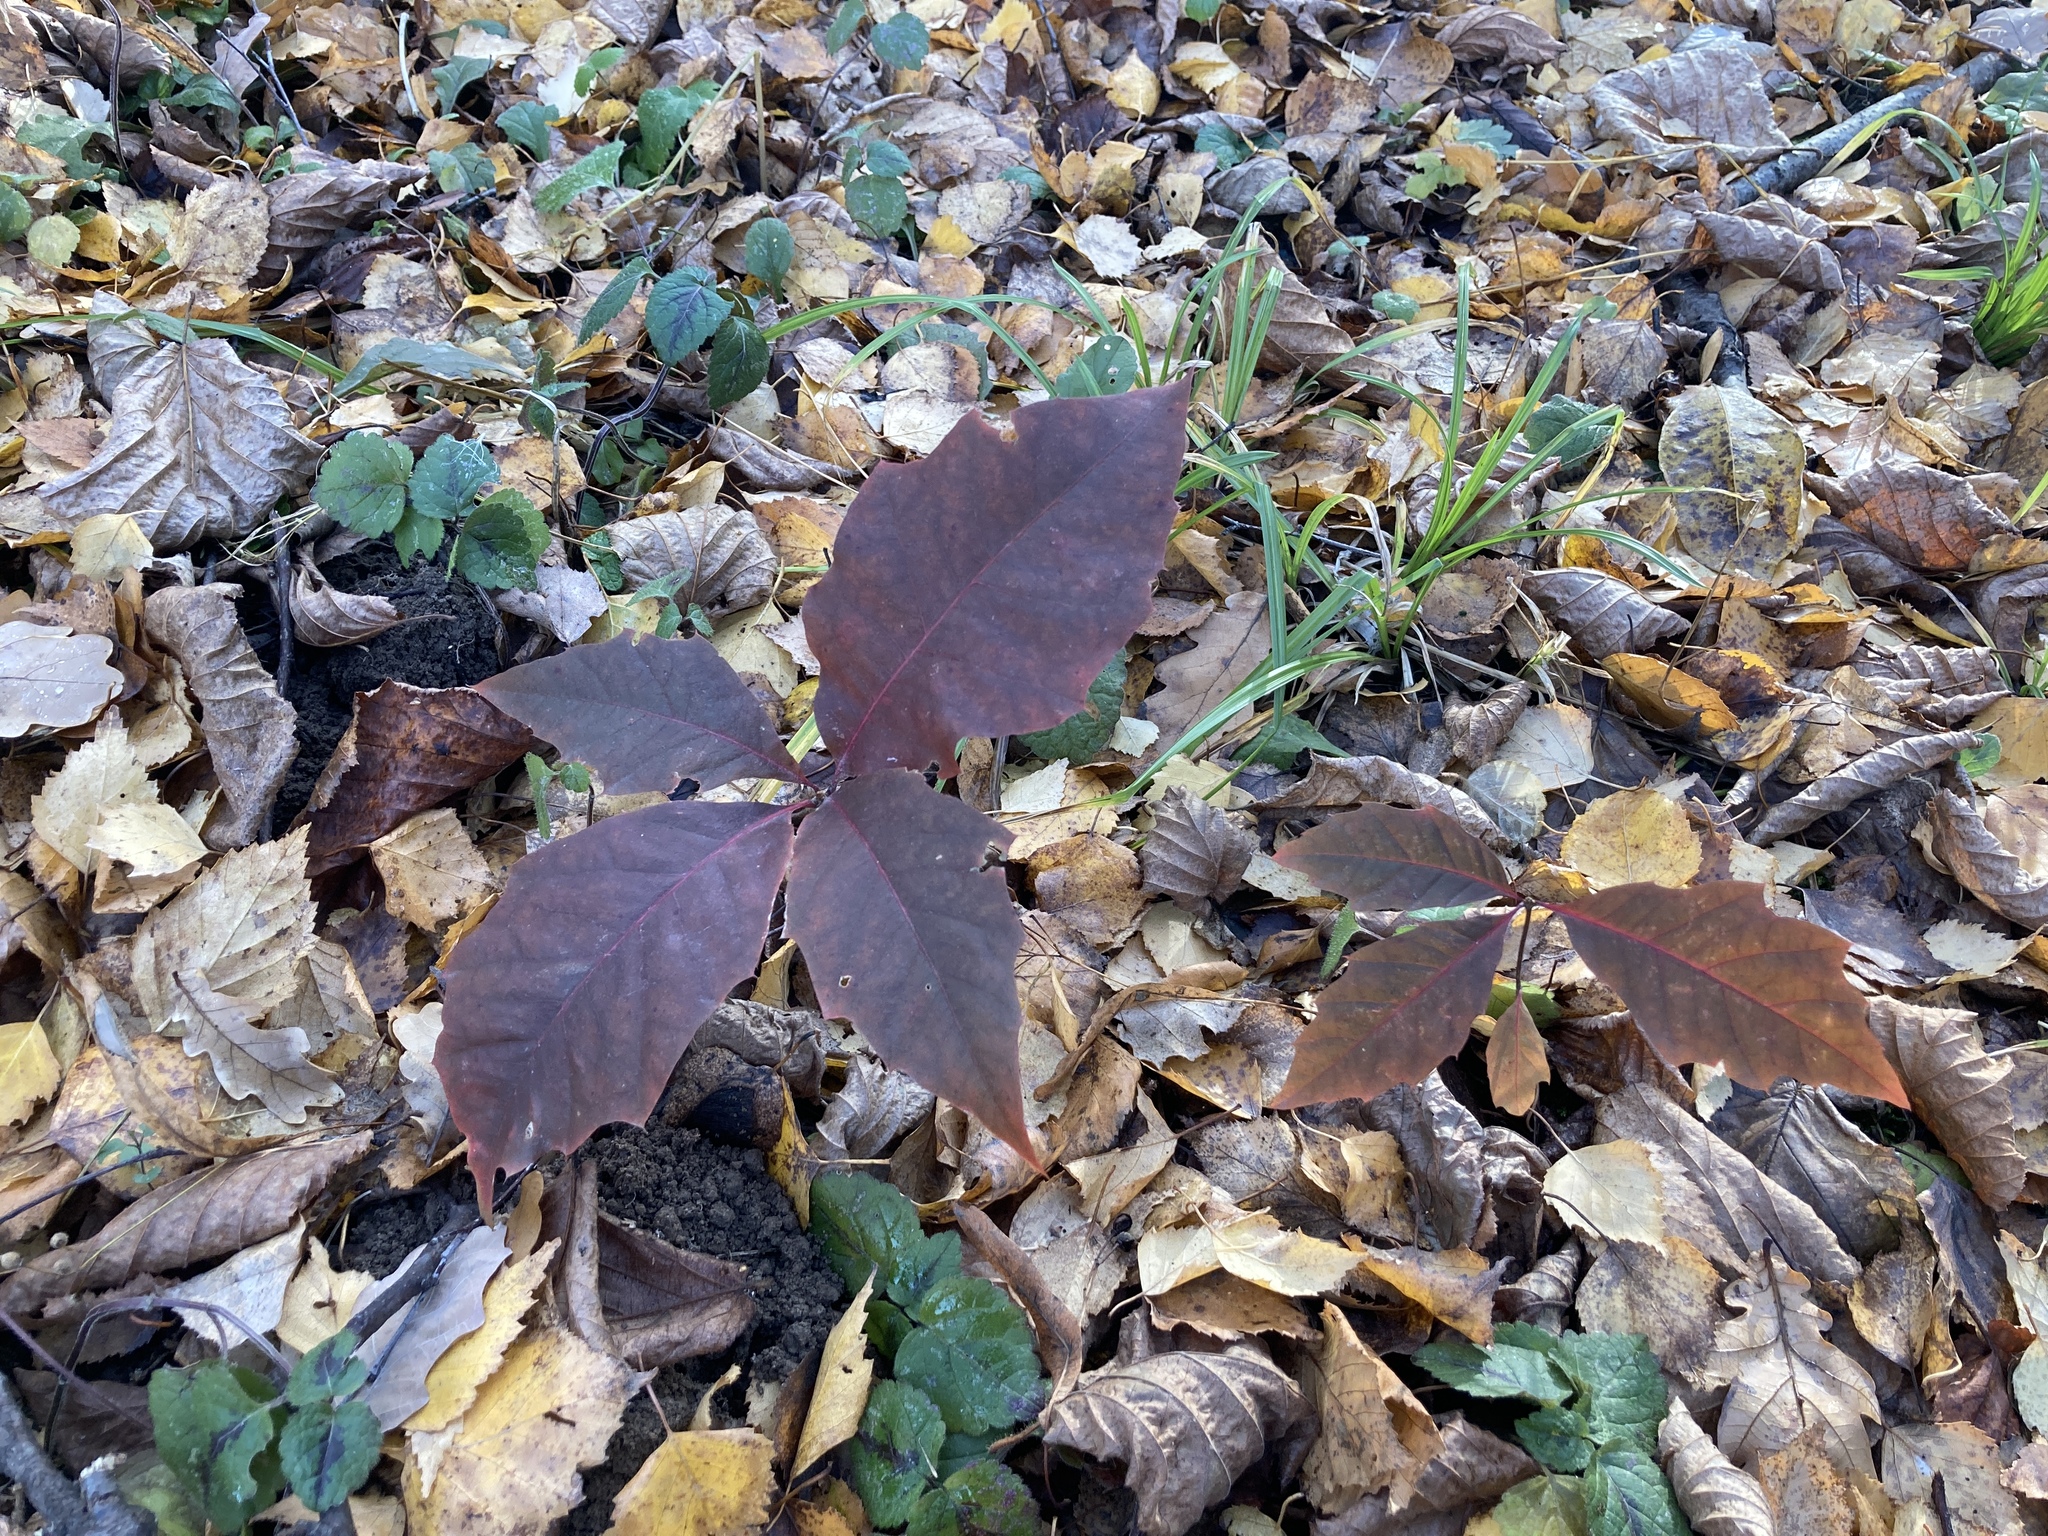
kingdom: Plantae
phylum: Tracheophyta
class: Magnoliopsida
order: Fagales
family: Fagaceae
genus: Quercus
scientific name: Quercus rubra
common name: Red oak
